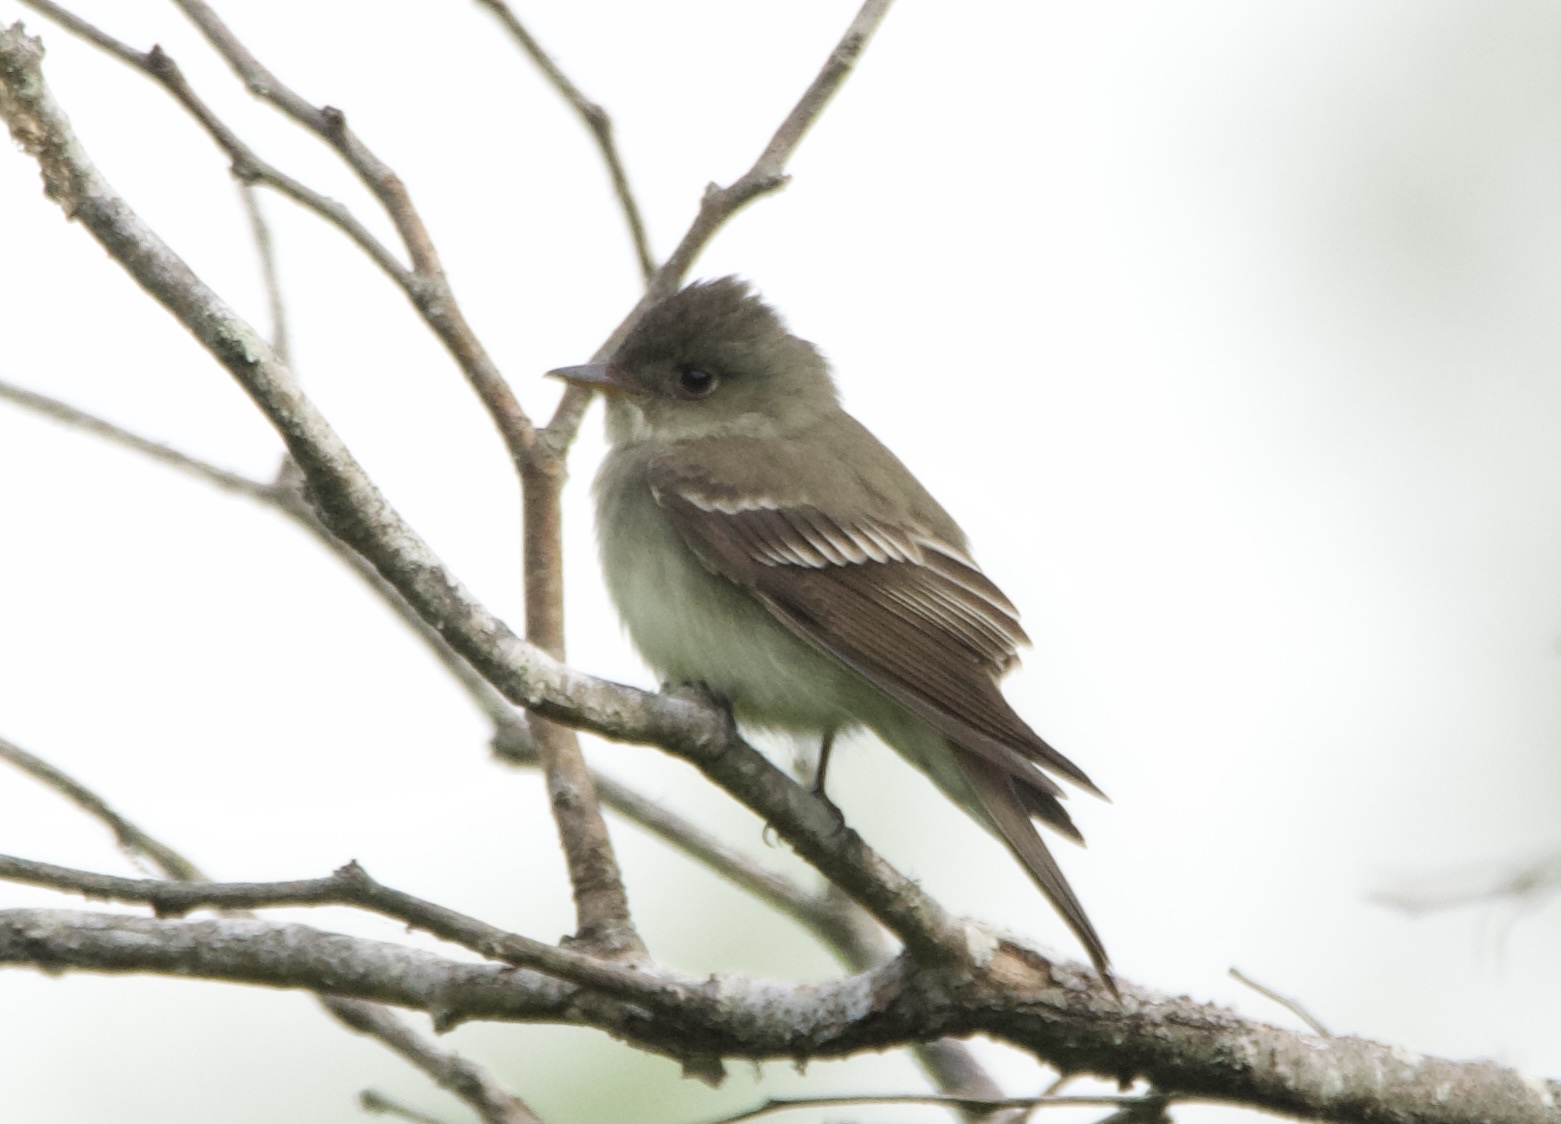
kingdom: Animalia
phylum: Chordata
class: Aves
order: Passeriformes
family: Tyrannidae
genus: Contopus
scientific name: Contopus virens
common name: Eastern wood-pewee
